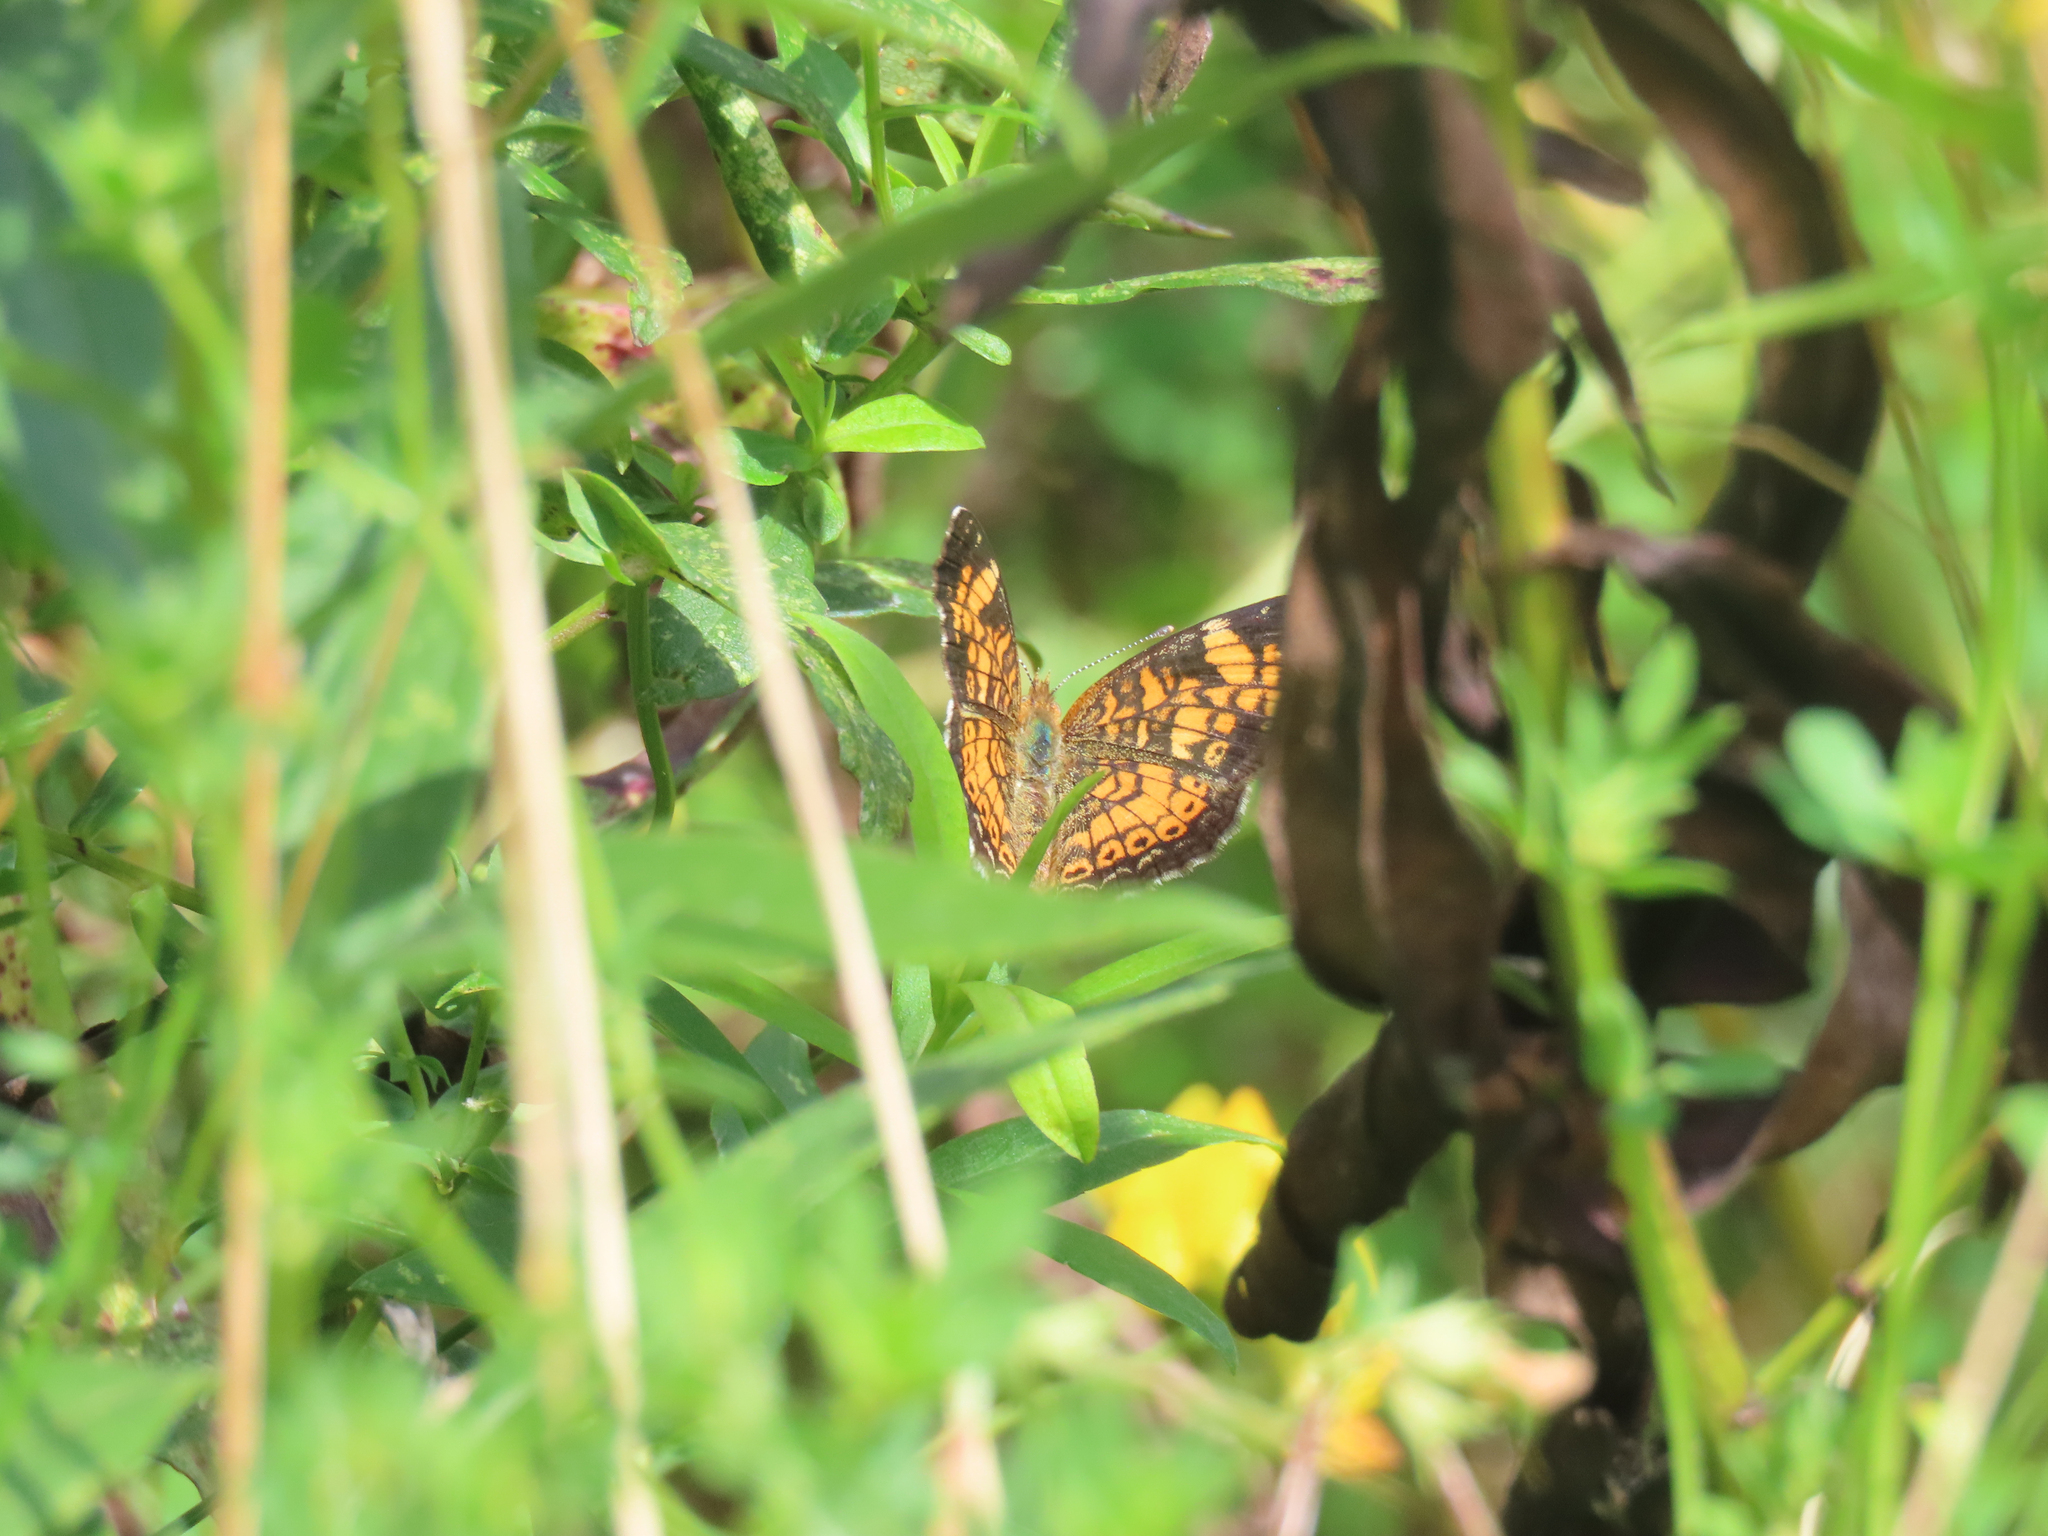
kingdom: Animalia
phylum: Arthropoda
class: Insecta
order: Lepidoptera
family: Nymphalidae
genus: Phyciodes
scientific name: Phyciodes tharos
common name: Pearl crescent
